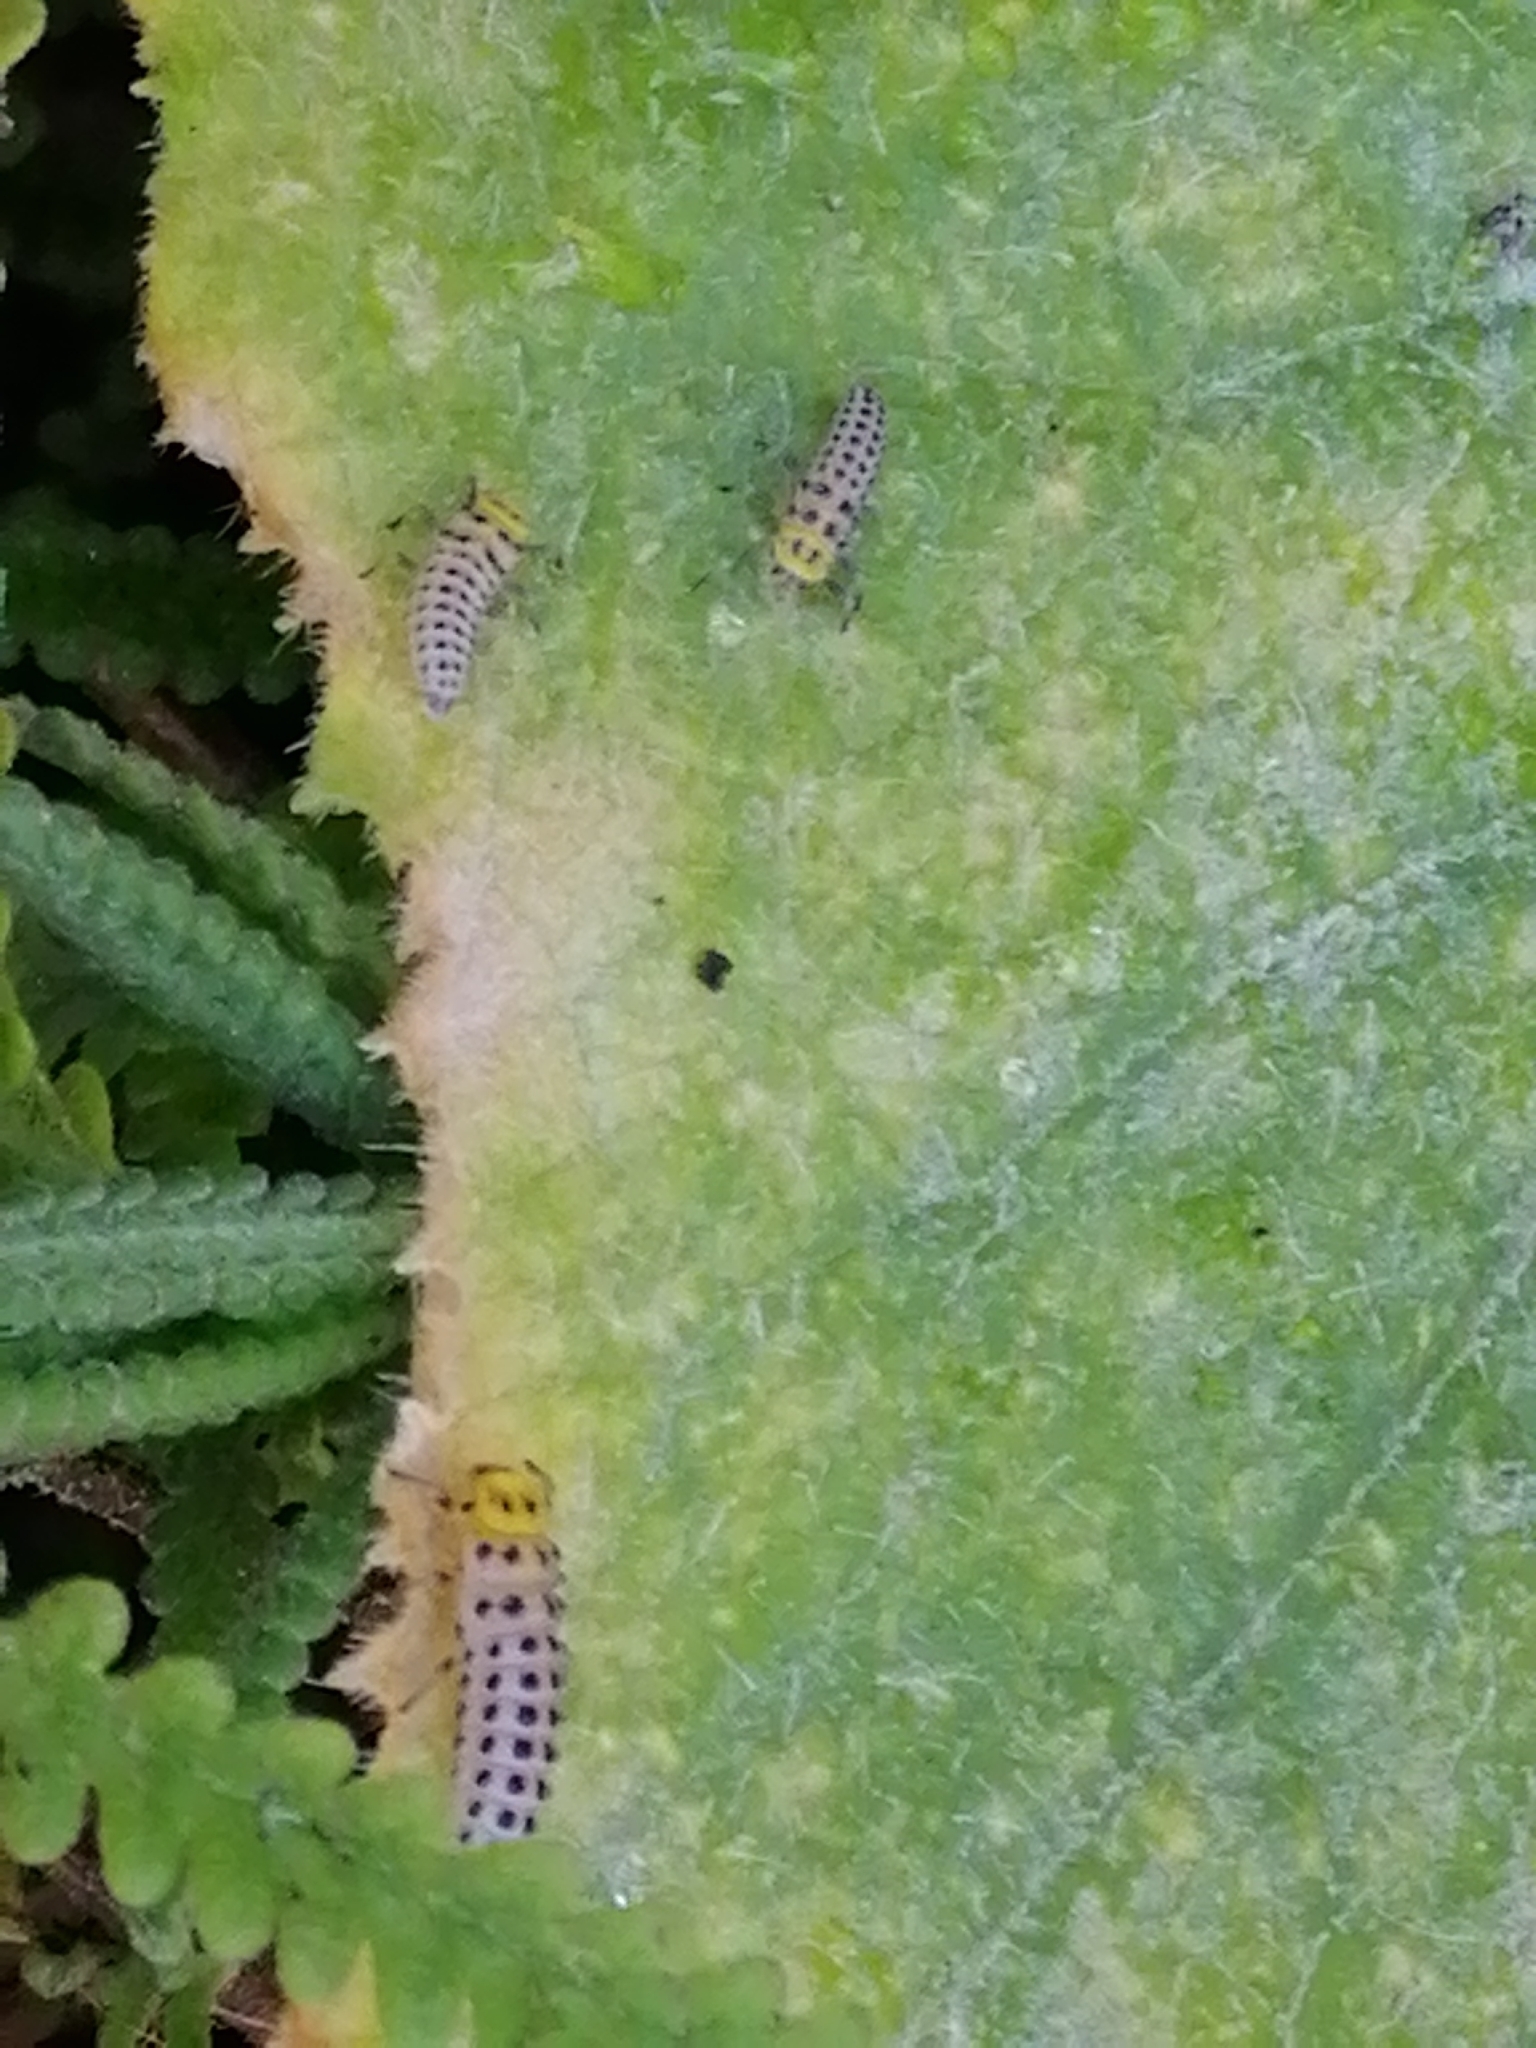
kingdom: Animalia
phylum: Arthropoda
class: Insecta
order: Coleoptera
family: Coccinellidae
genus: Illeis
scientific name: Illeis galbula
